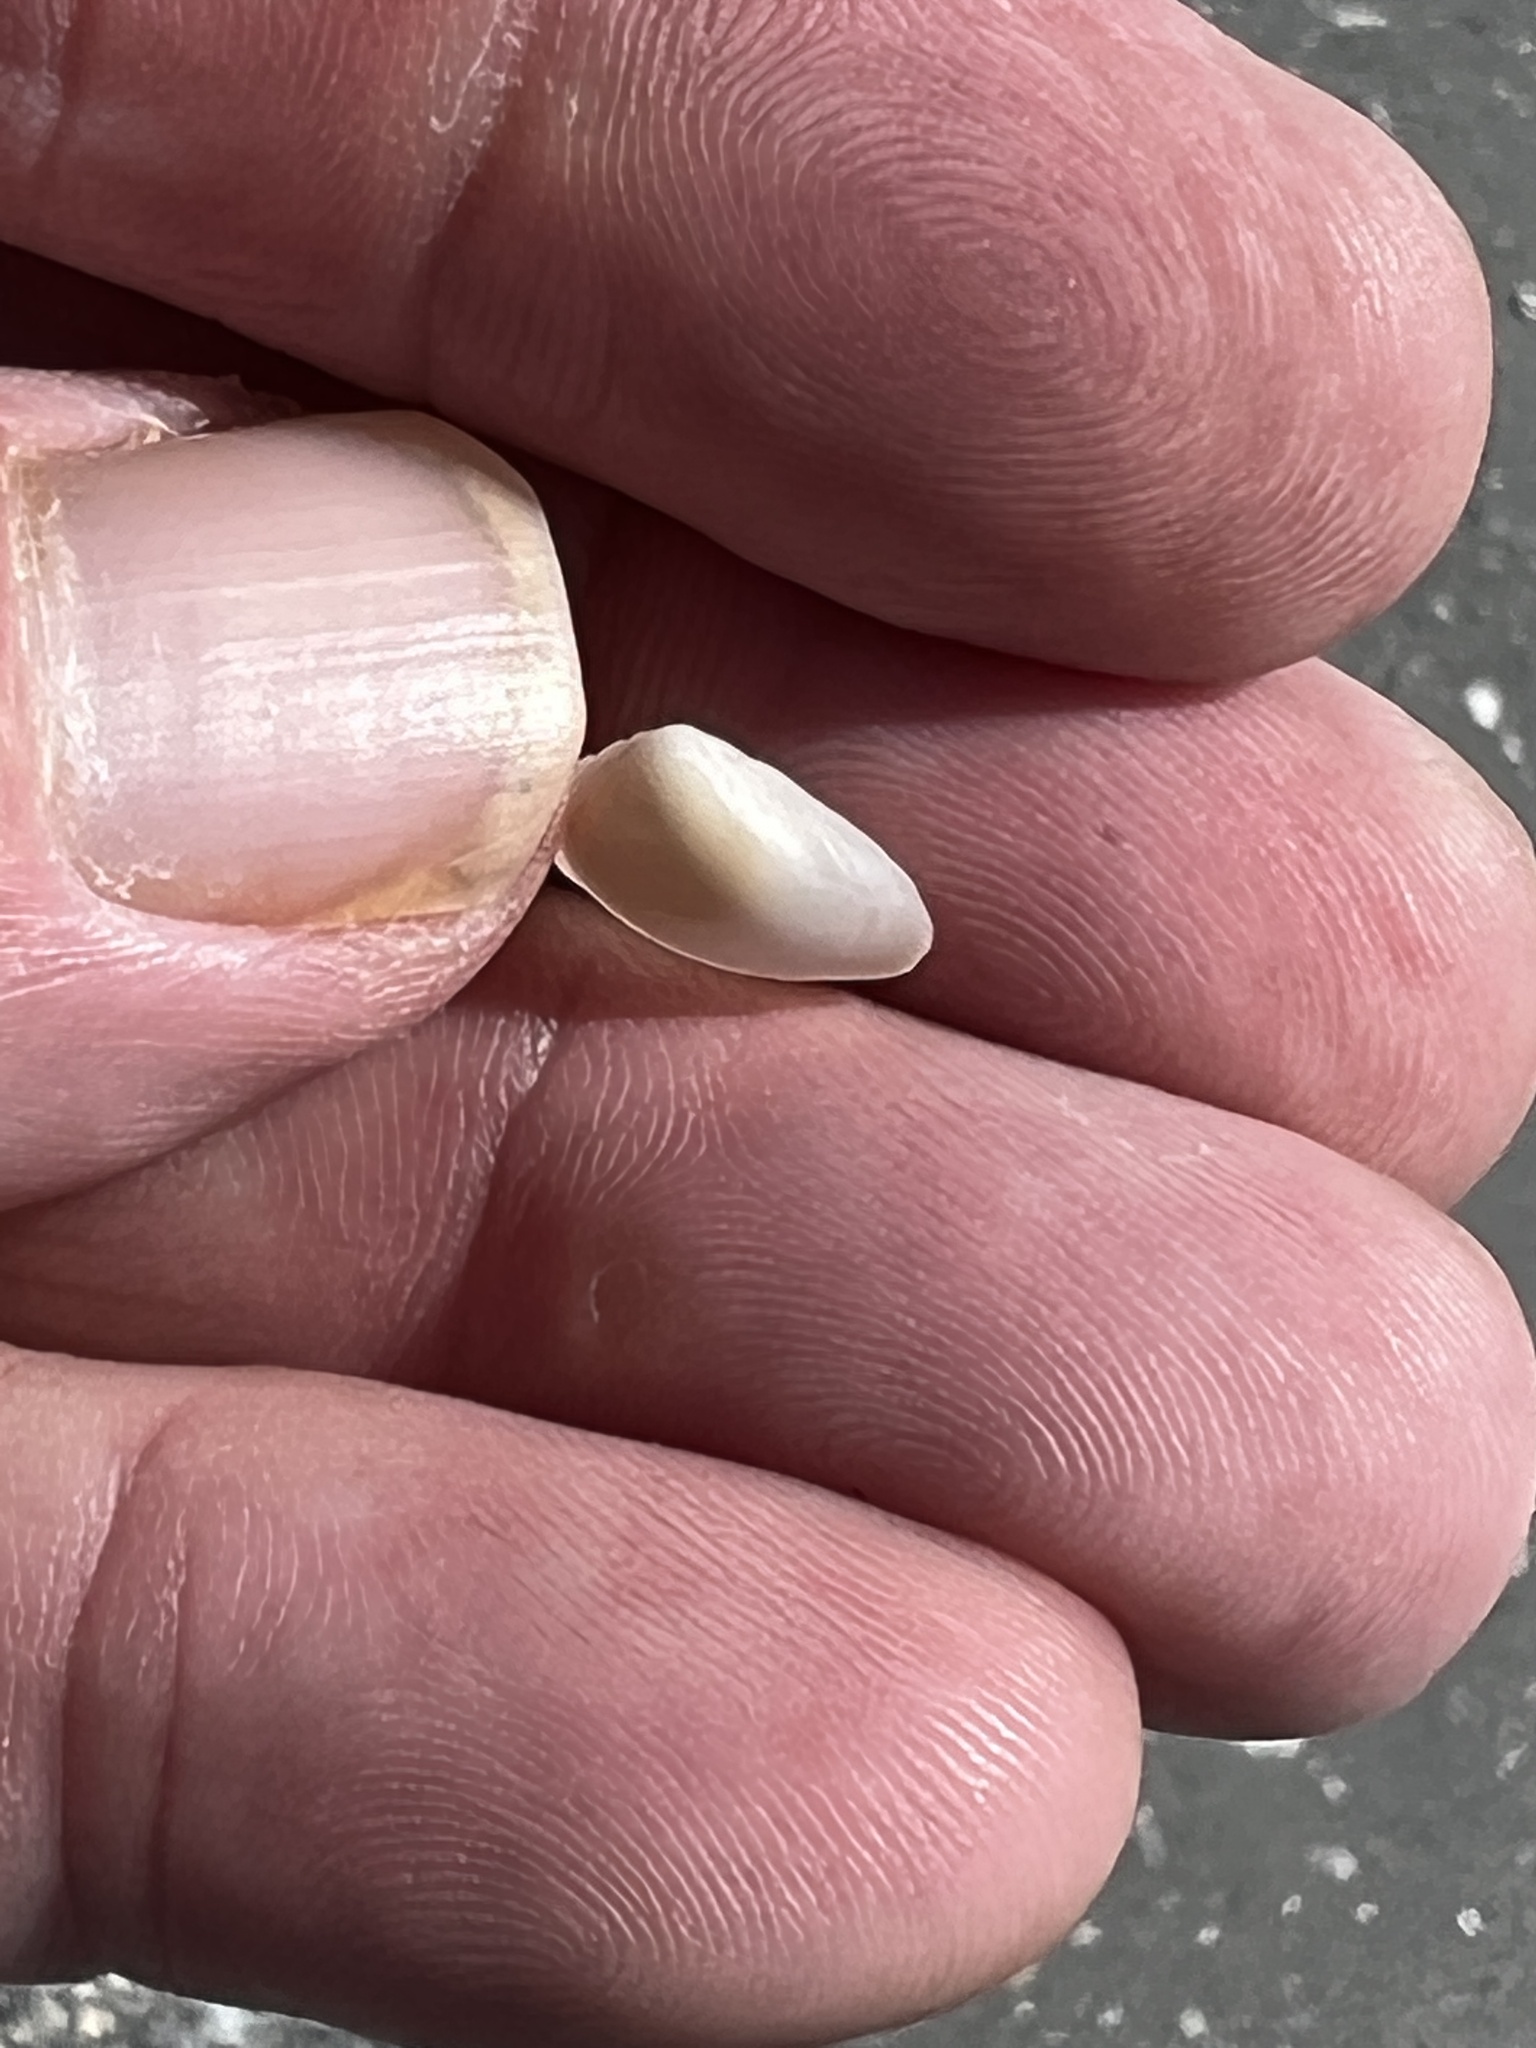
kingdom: Animalia
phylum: Mollusca
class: Bivalvia
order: Venerida
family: Mactridae
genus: Mulinia
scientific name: Mulinia lateralis
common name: Dwarf surfclam
